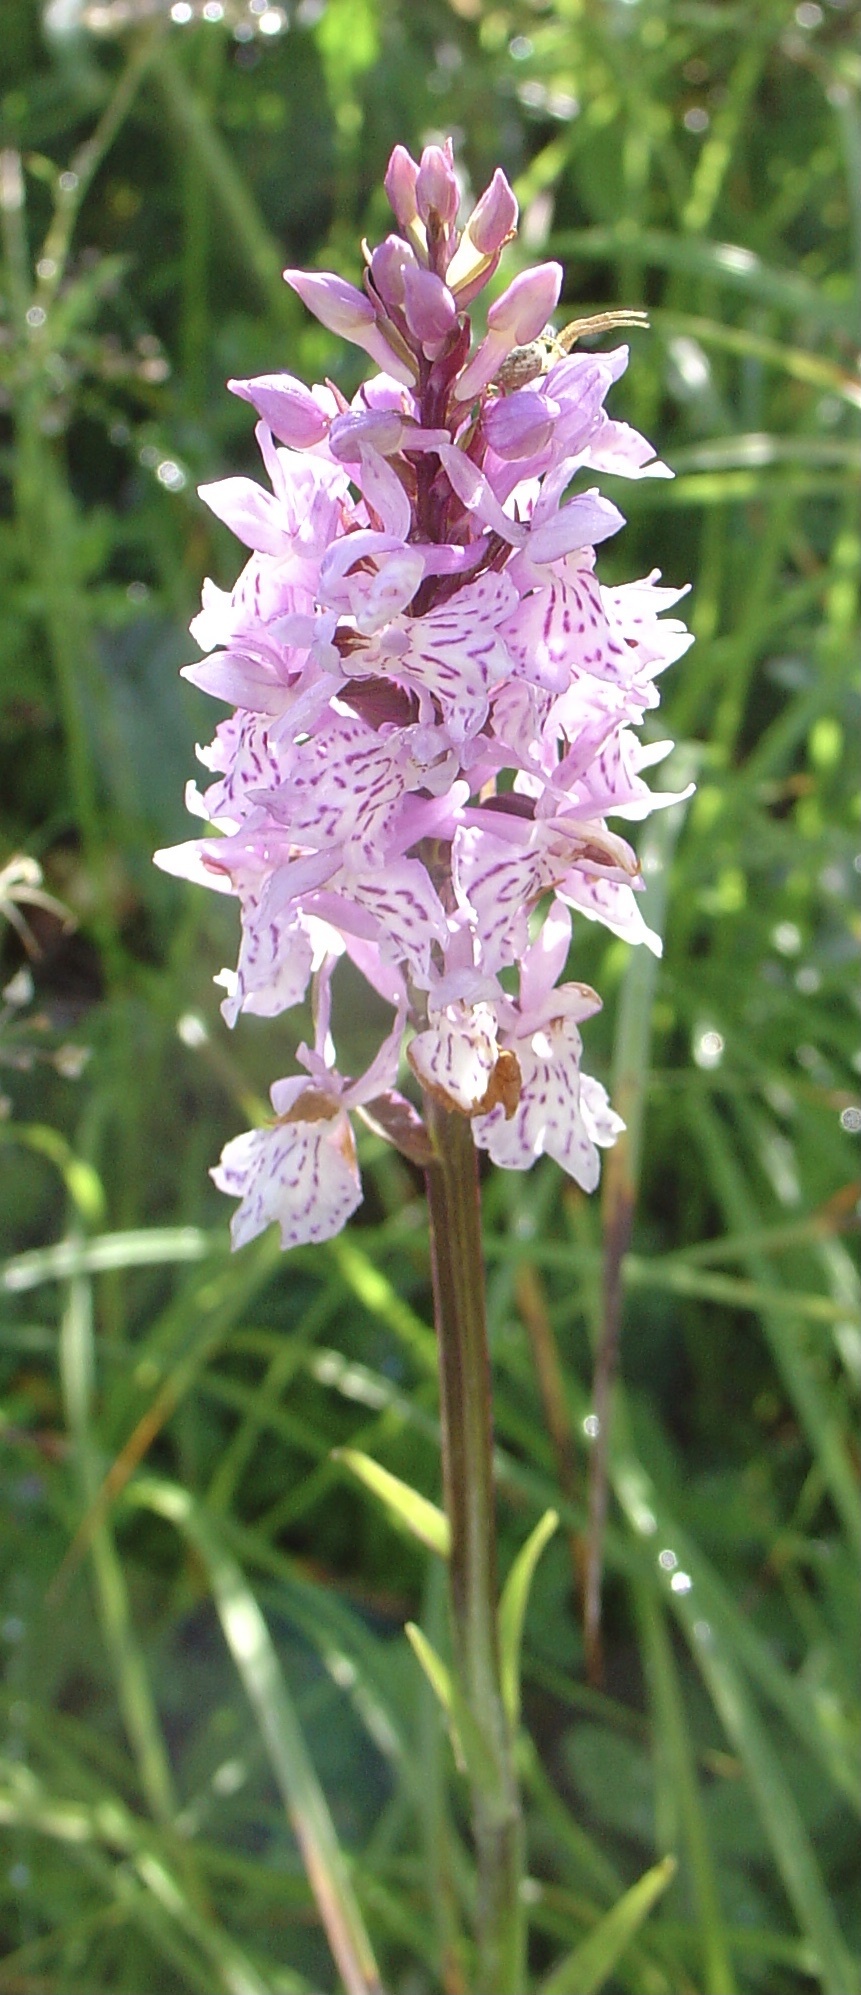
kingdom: Plantae
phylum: Tracheophyta
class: Liliopsida
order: Asparagales
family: Orchidaceae
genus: Dactylorhiza
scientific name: Dactylorhiza maculata
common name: Heath spotted-orchid
